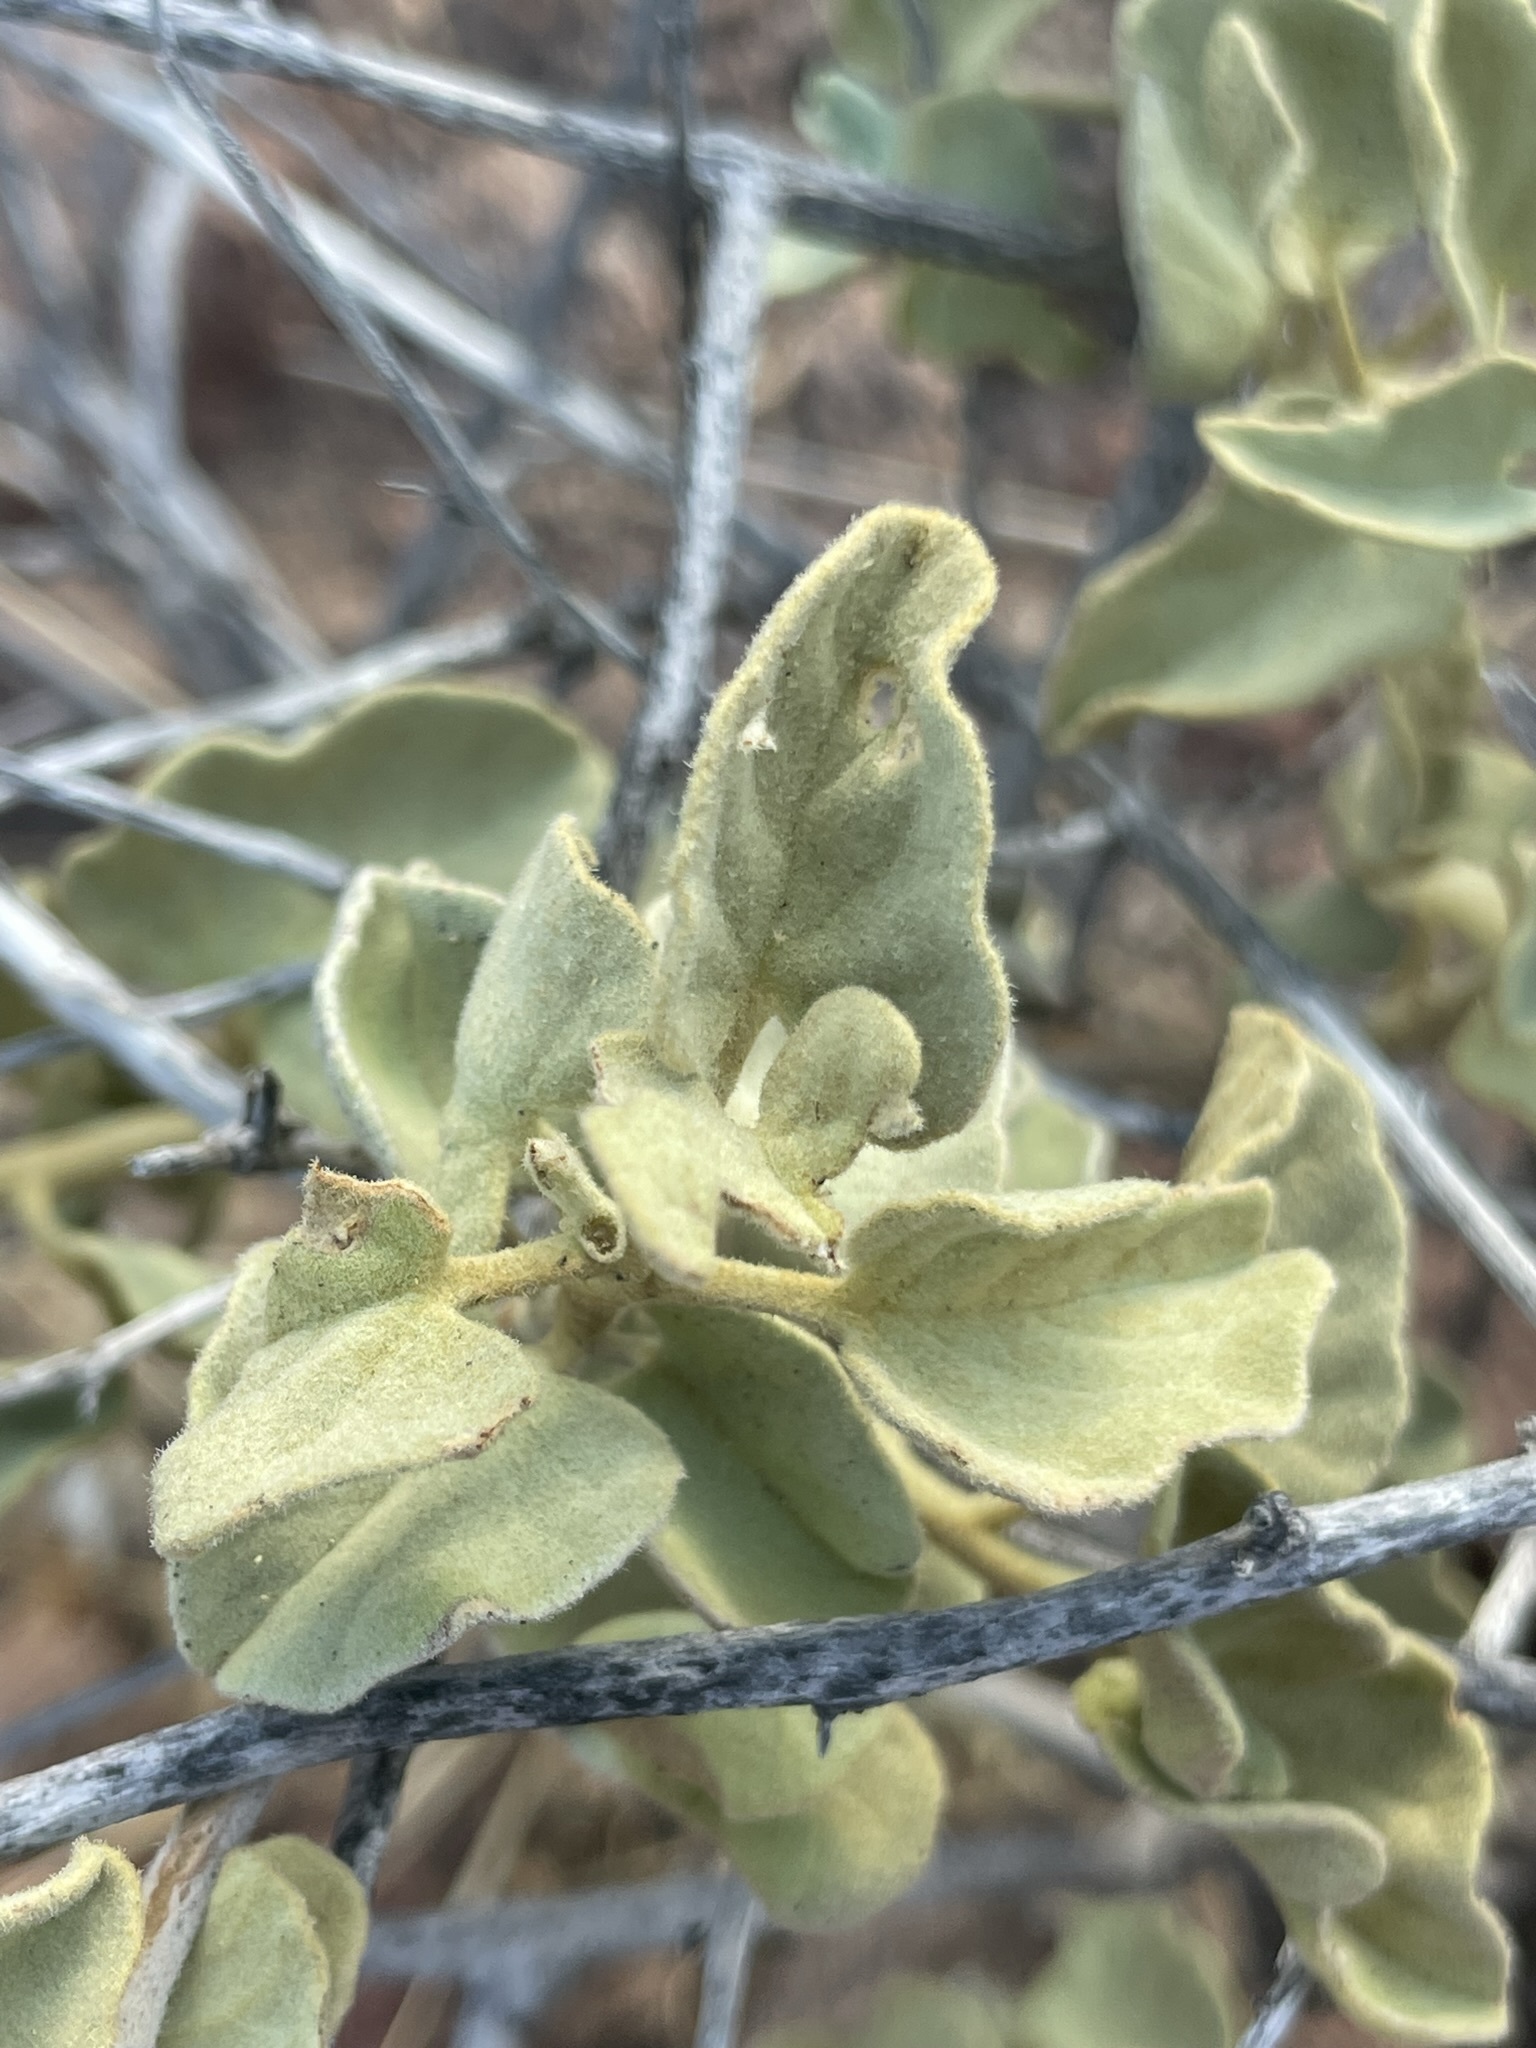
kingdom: Plantae
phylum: Tracheophyta
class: Magnoliopsida
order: Solanales
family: Convolvulaceae
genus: Jacquemontia
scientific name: Jacquemontia abutiloides
